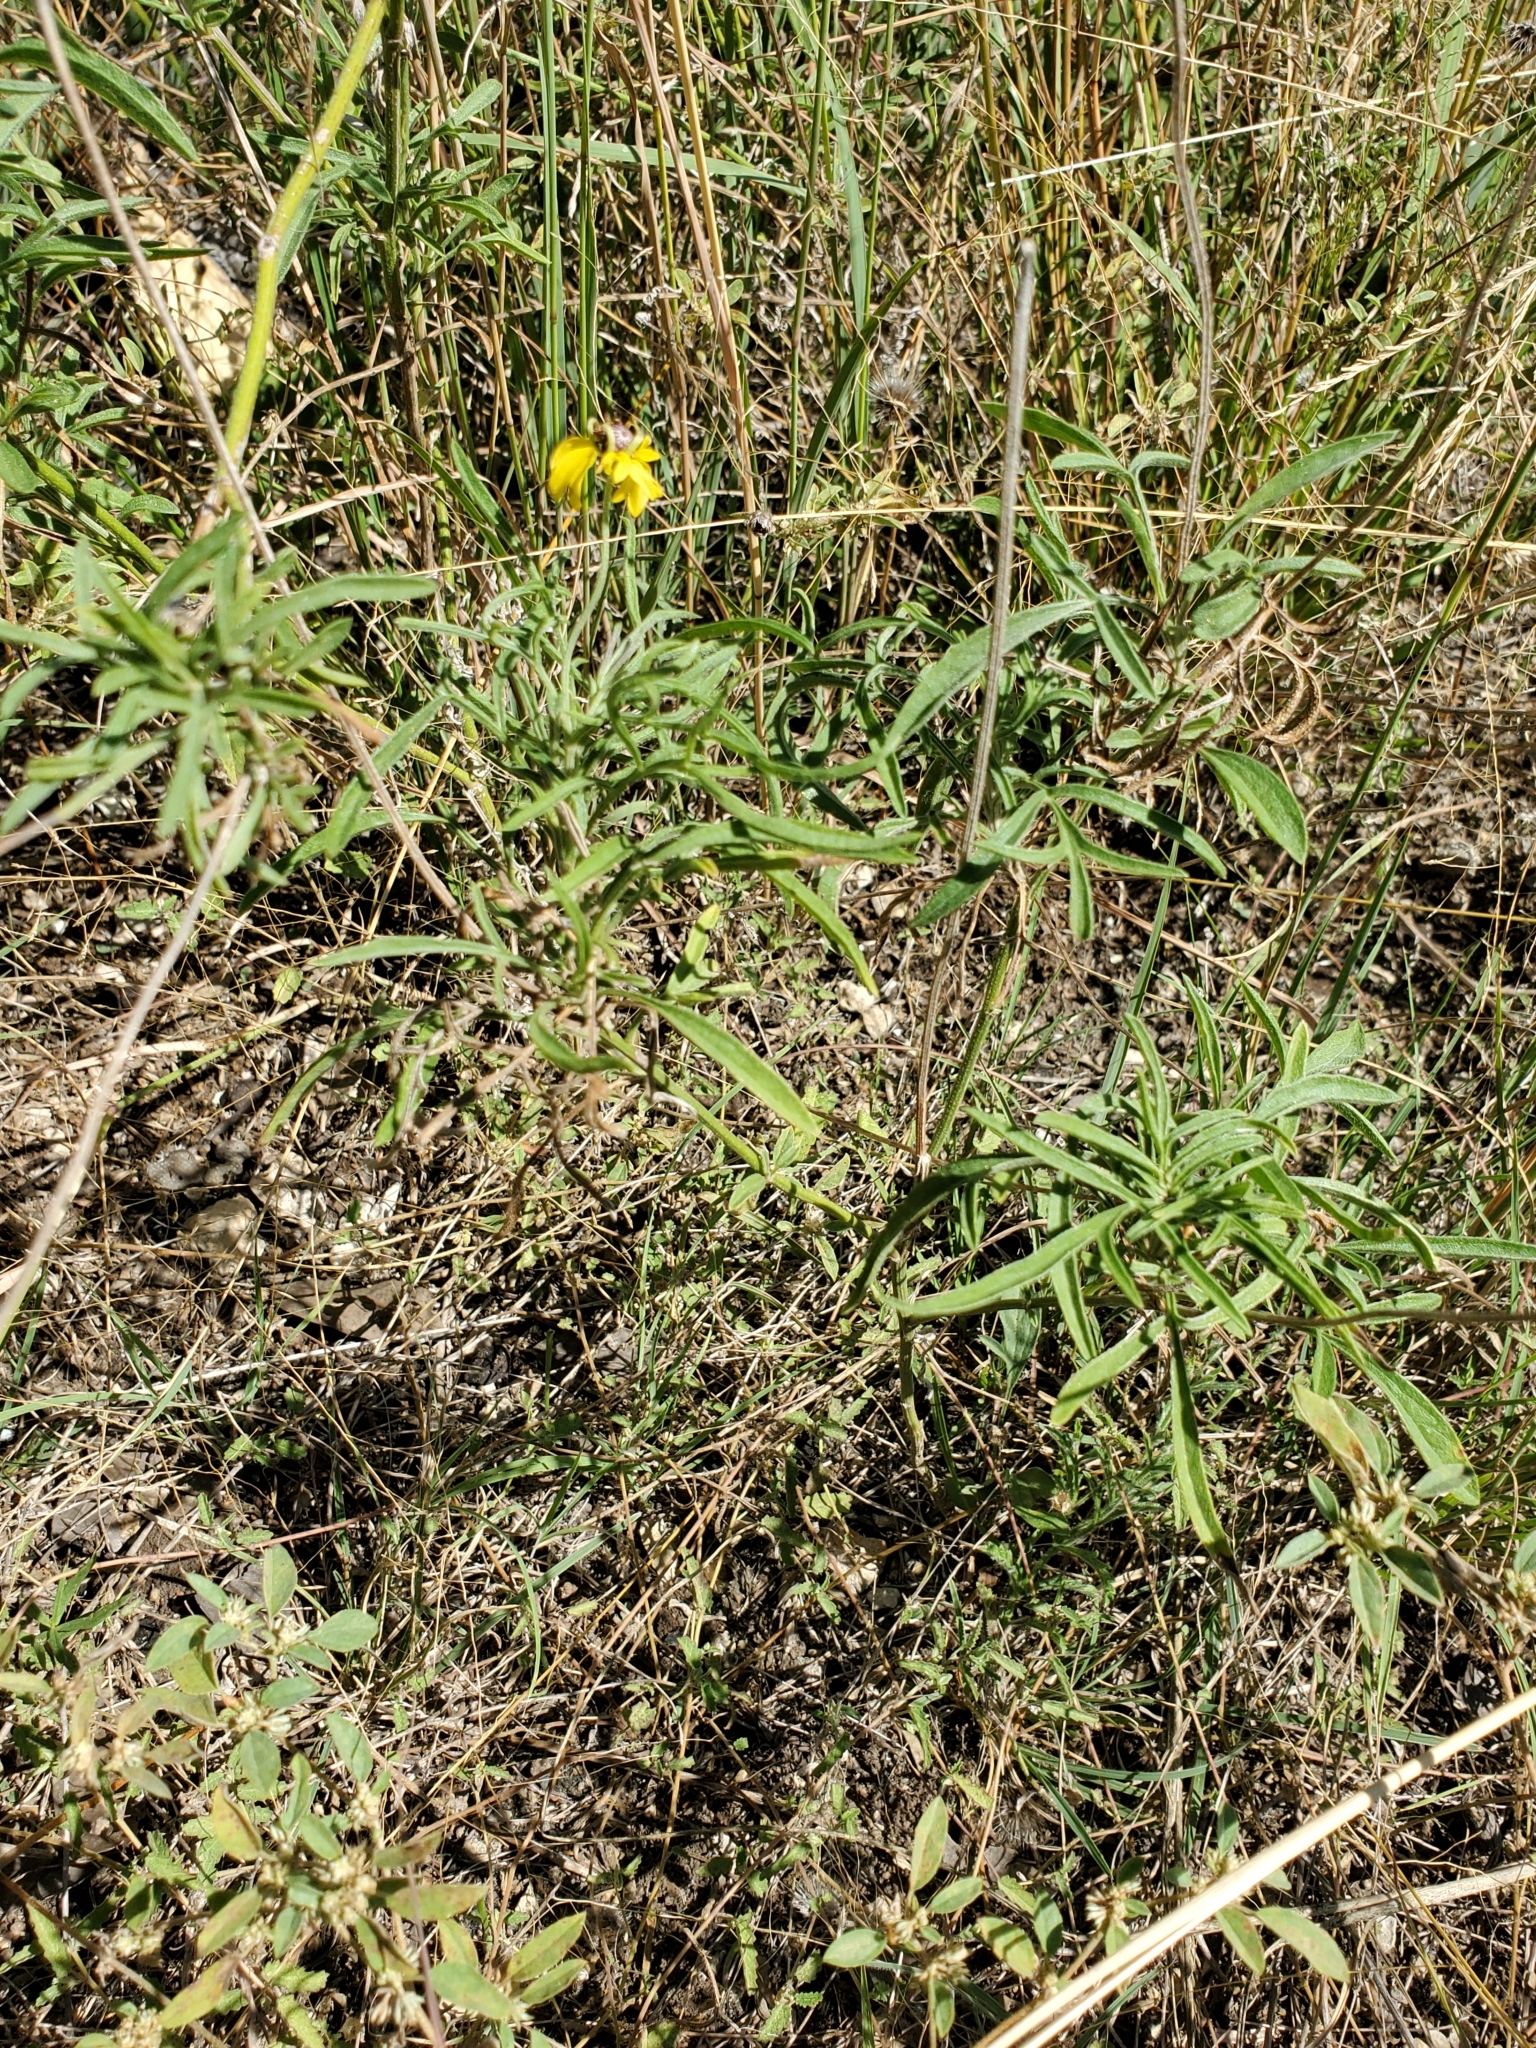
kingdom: Plantae
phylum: Tracheophyta
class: Magnoliopsida
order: Asterales
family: Asteraceae
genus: Ratibida
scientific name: Ratibida columnifera
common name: Prairie coneflower
